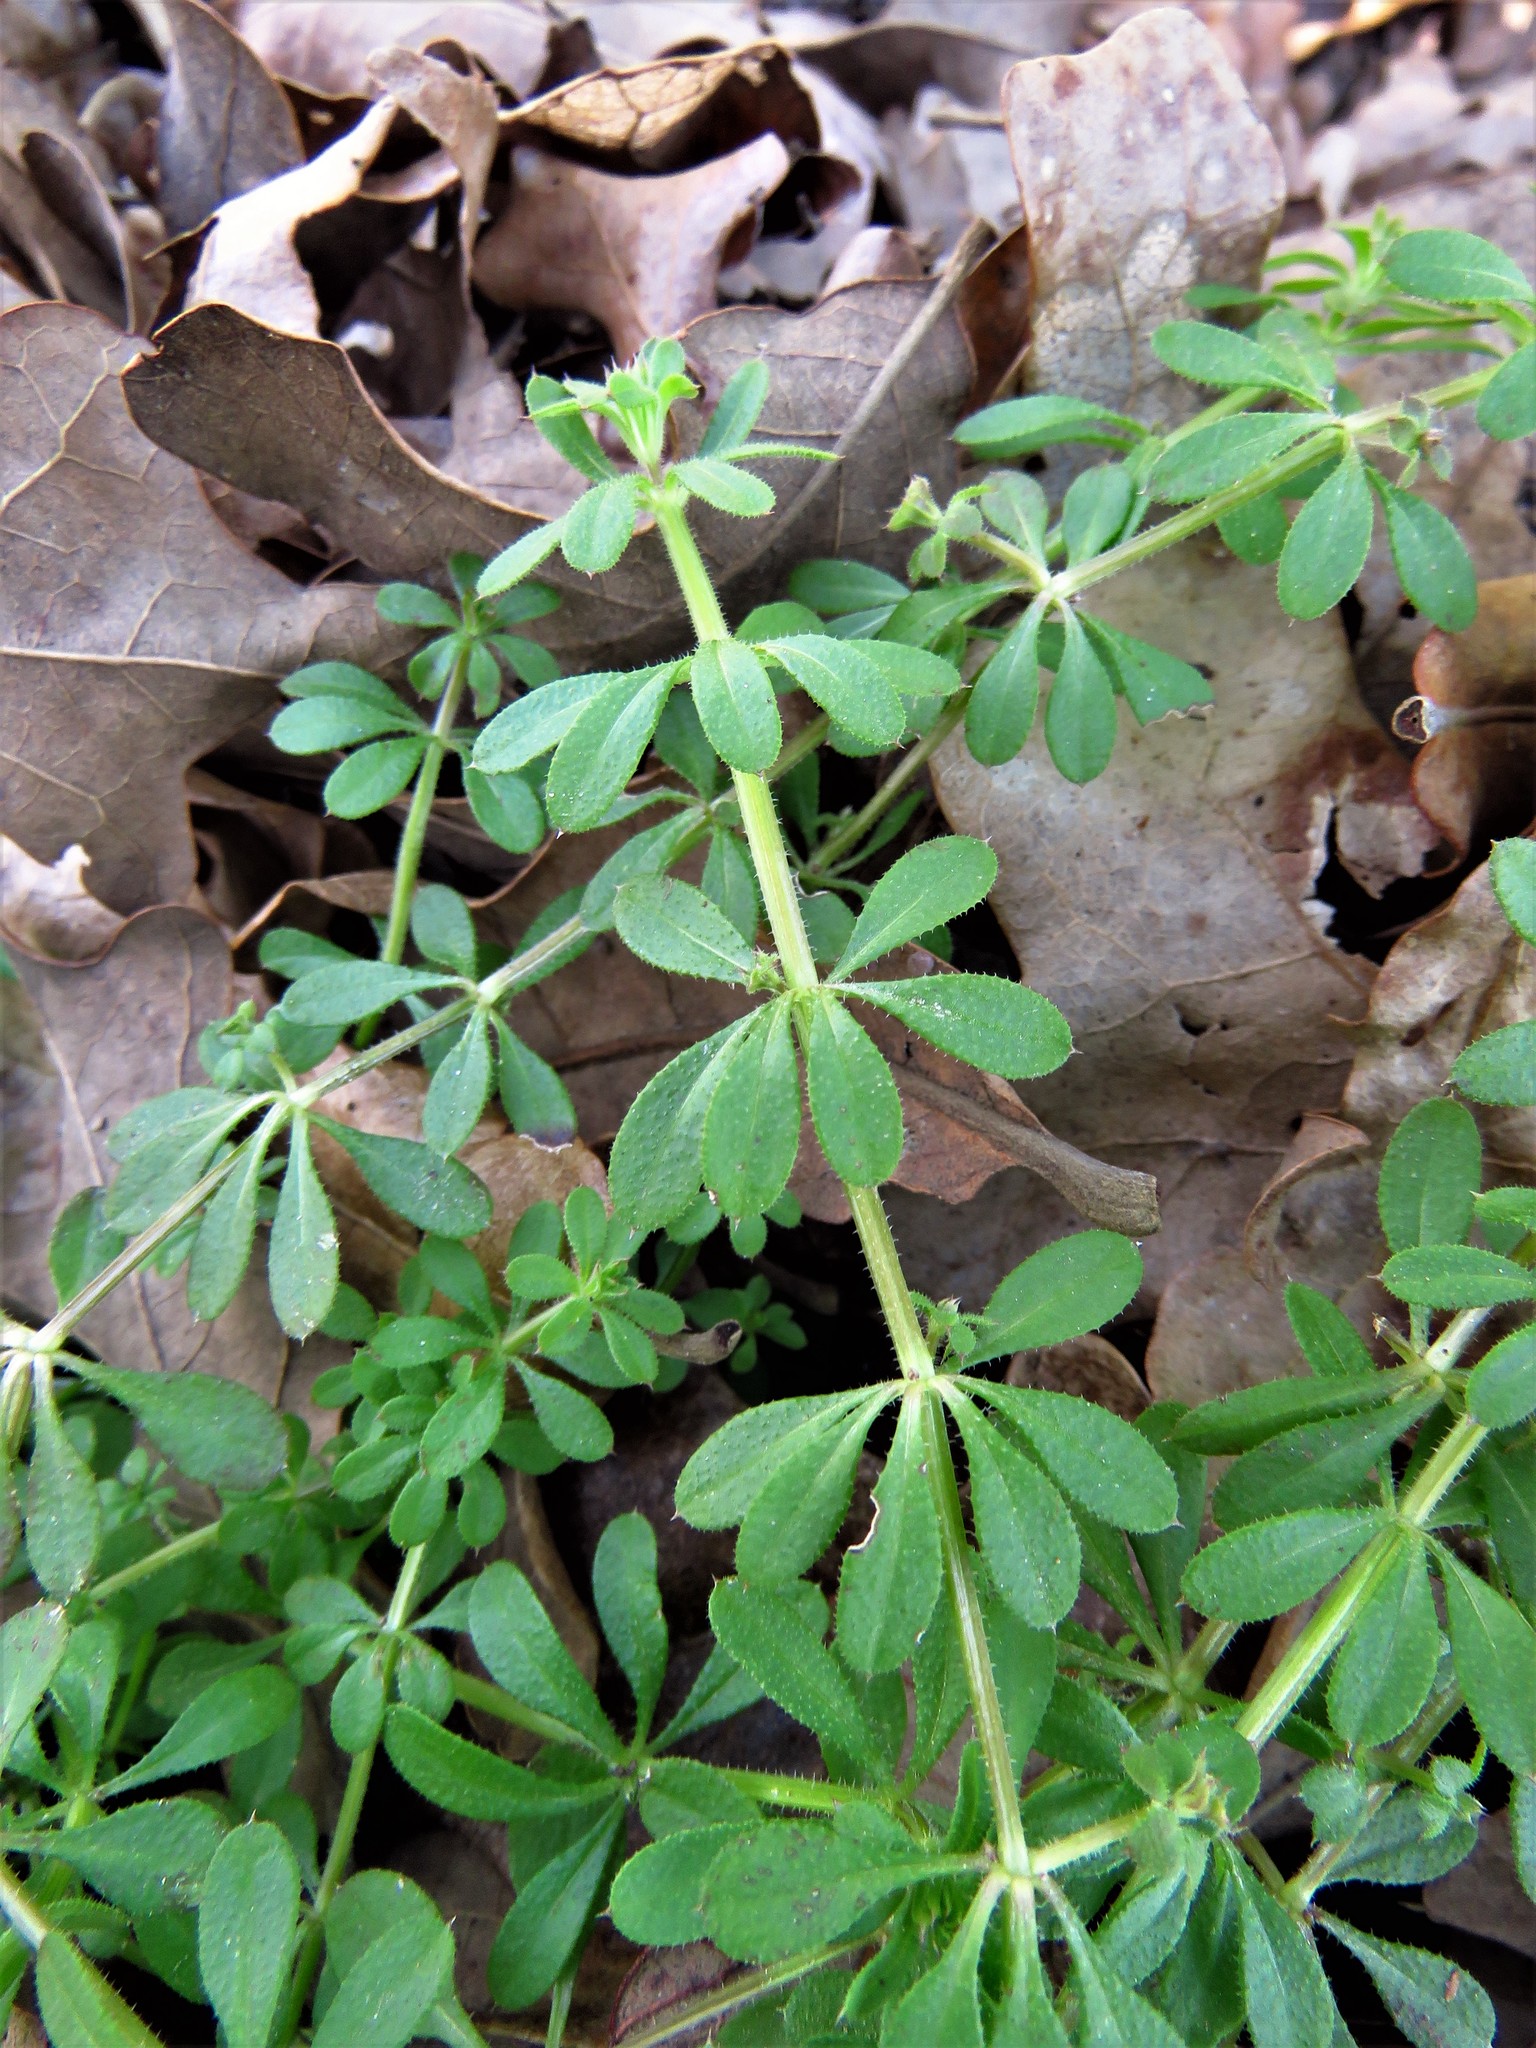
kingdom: Plantae
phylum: Tracheophyta
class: Magnoliopsida
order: Gentianales
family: Rubiaceae
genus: Galium
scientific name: Galium aparine
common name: Cleavers
